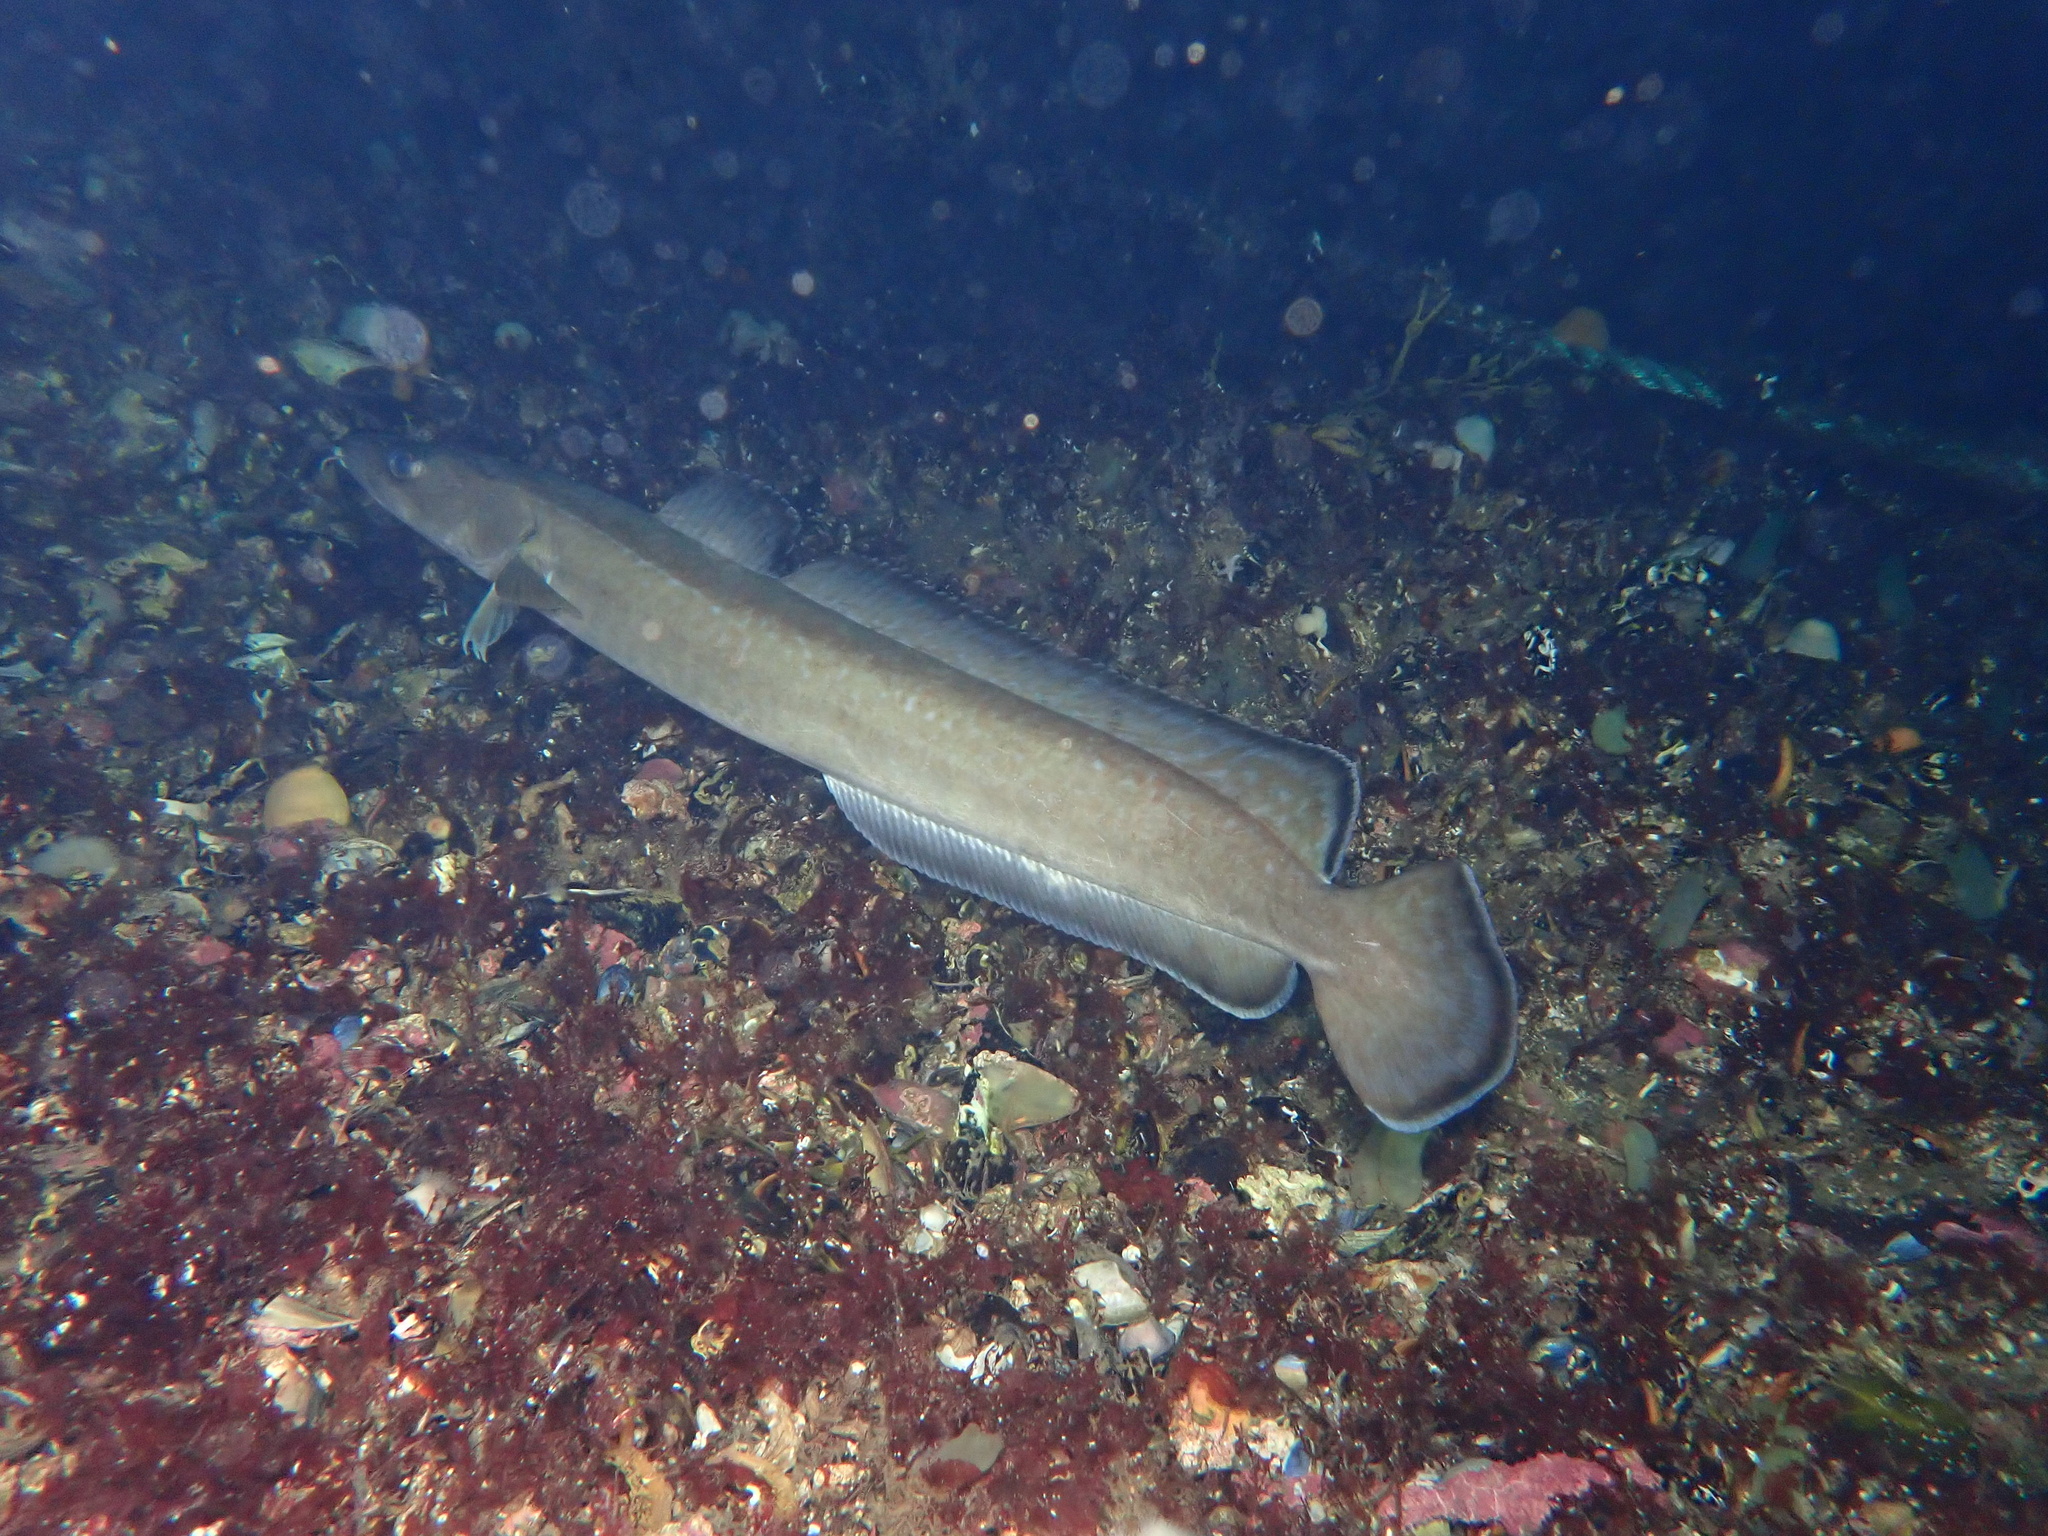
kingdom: Animalia
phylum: Chordata
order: Gadiformes
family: Lotidae
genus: Molva
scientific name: Molva molva
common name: Ling
